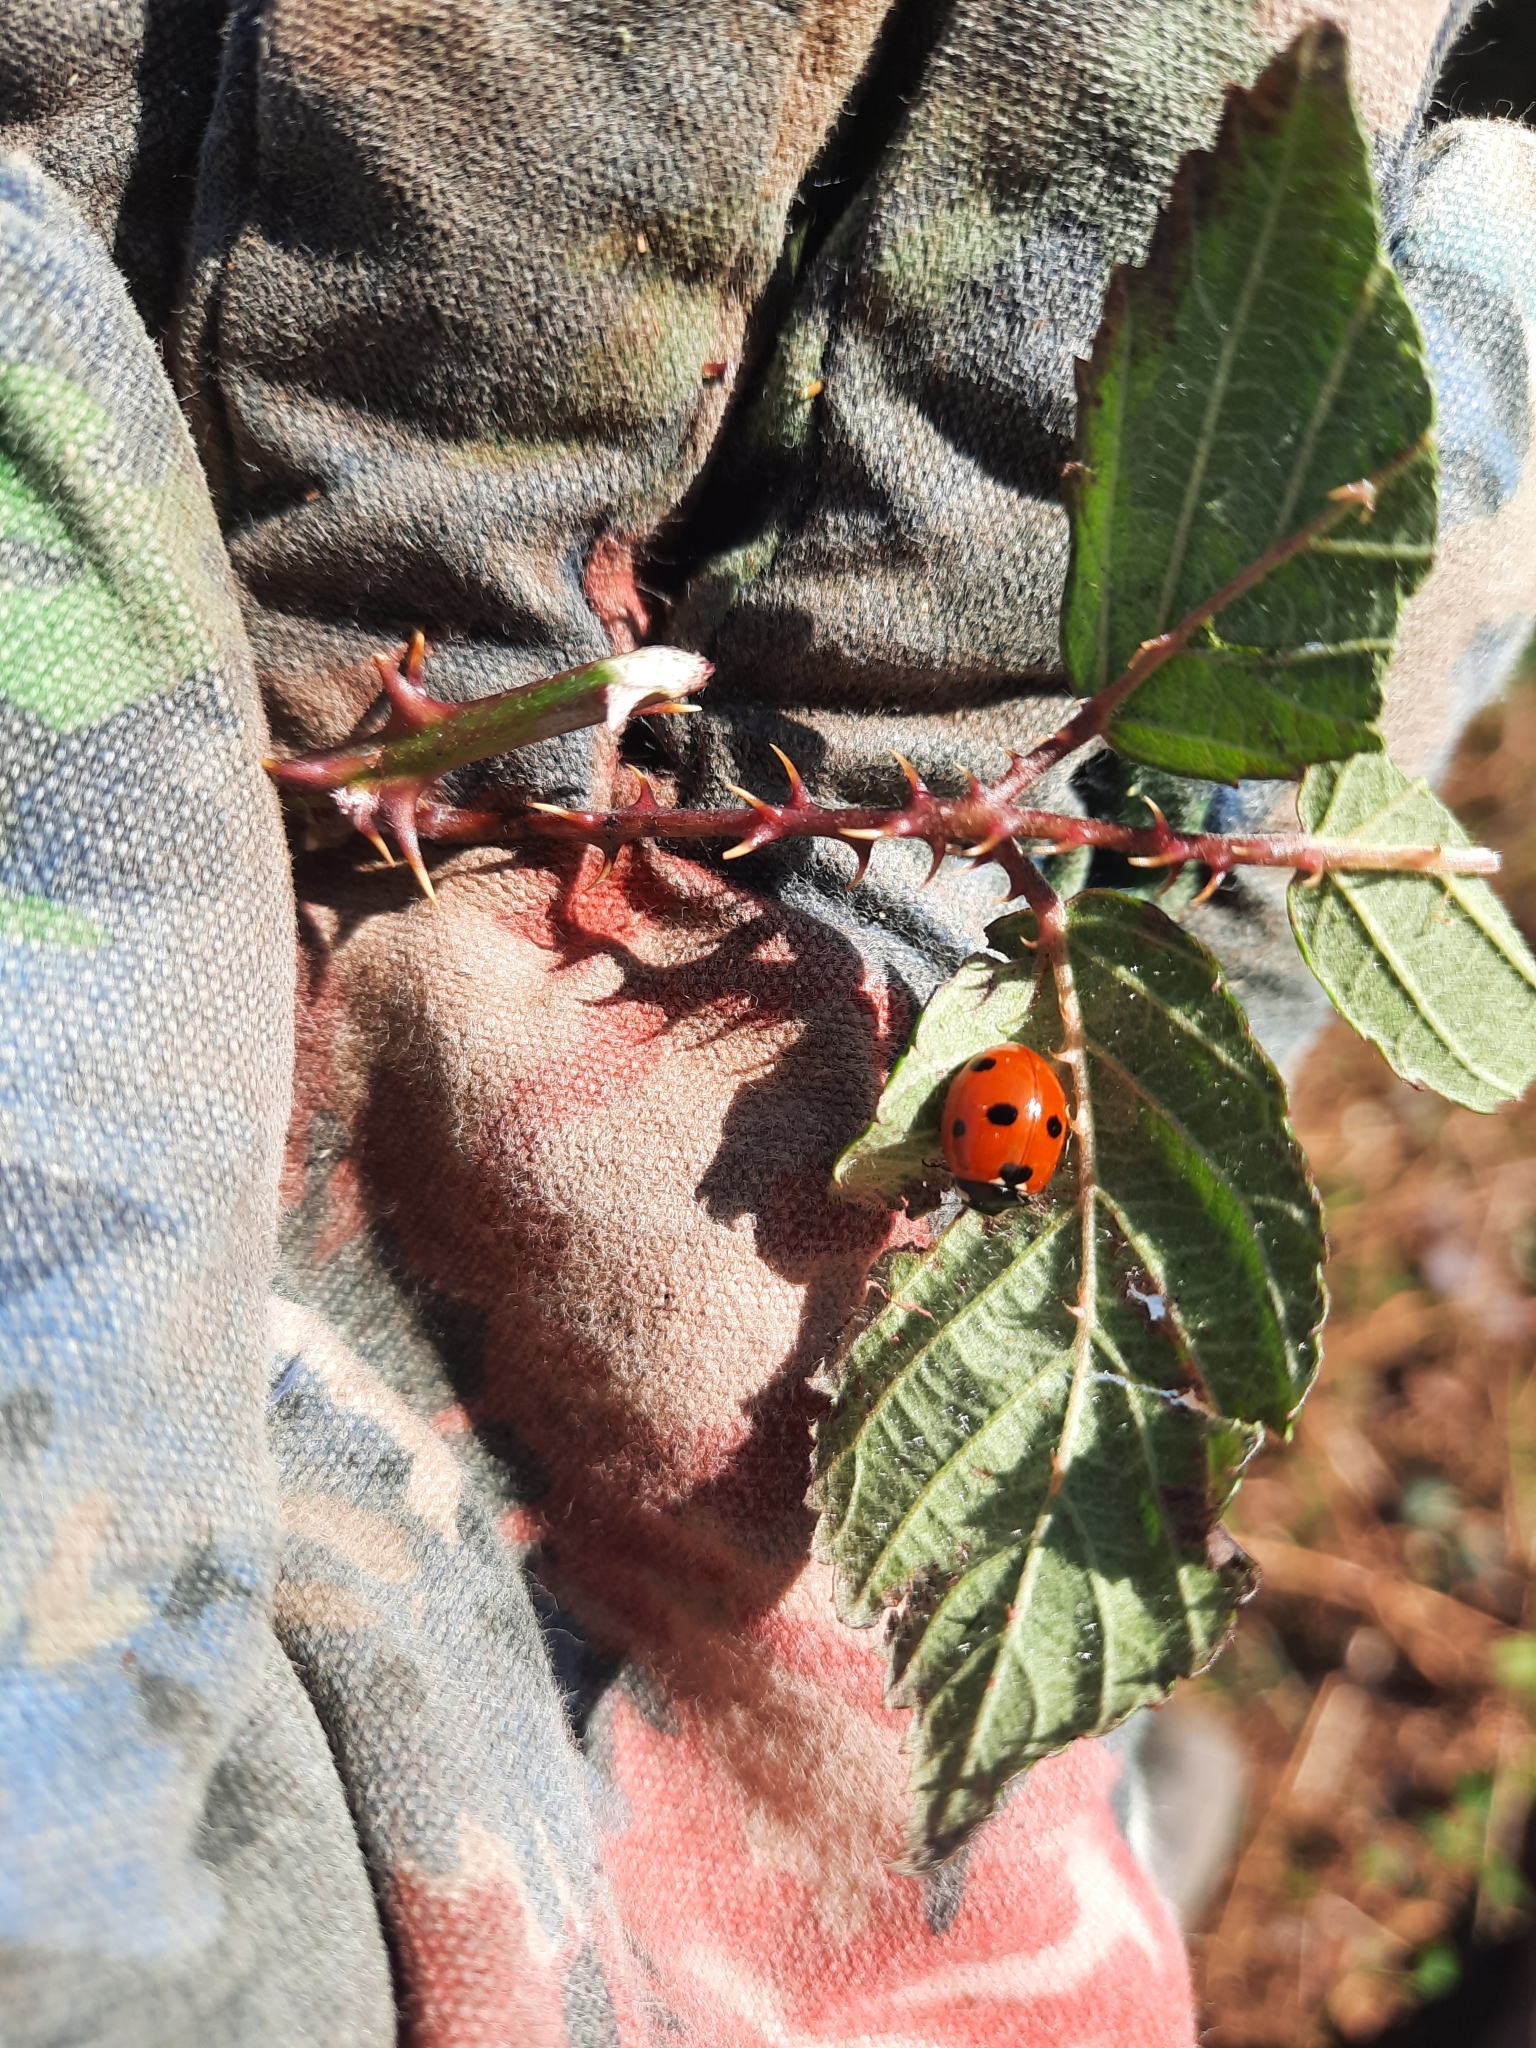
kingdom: Animalia
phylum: Arthropoda
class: Insecta
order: Coleoptera
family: Coccinellidae
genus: Coccinella
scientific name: Coccinella septempunctata
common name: Sevenspotted lady beetle
